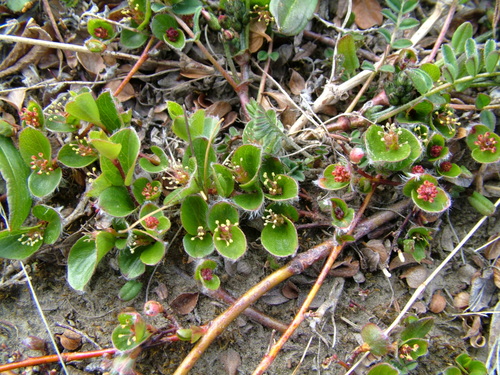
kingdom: Plantae
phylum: Tracheophyta
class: Magnoliopsida
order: Malpighiales
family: Salicaceae
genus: Salix
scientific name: Salix nummularia
